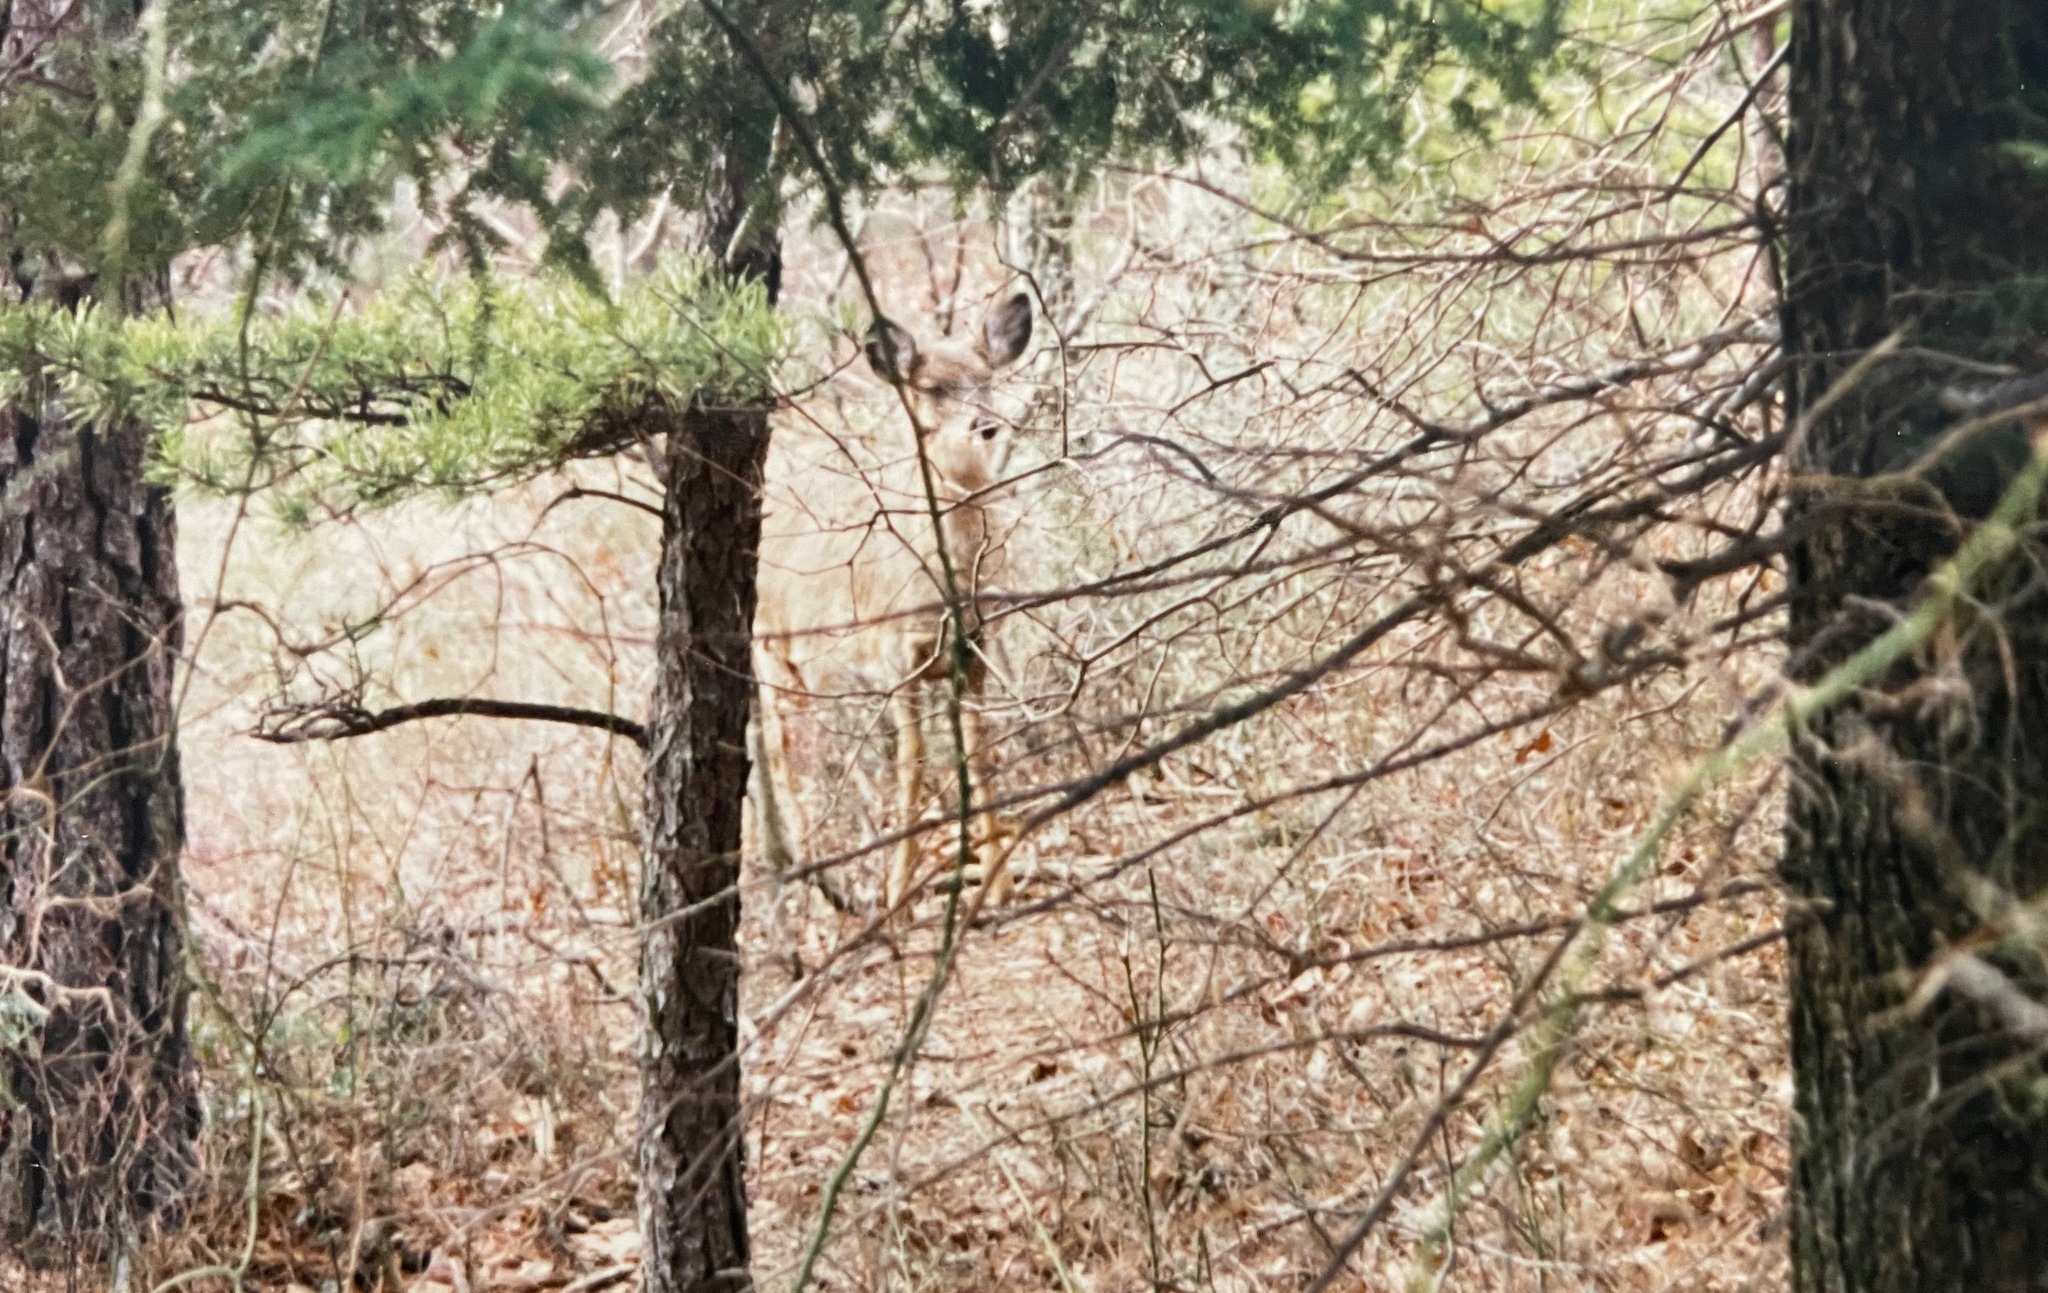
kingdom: Animalia
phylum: Chordata
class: Mammalia
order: Artiodactyla
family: Cervidae
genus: Odocoileus
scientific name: Odocoileus virginianus
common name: White-tailed deer
